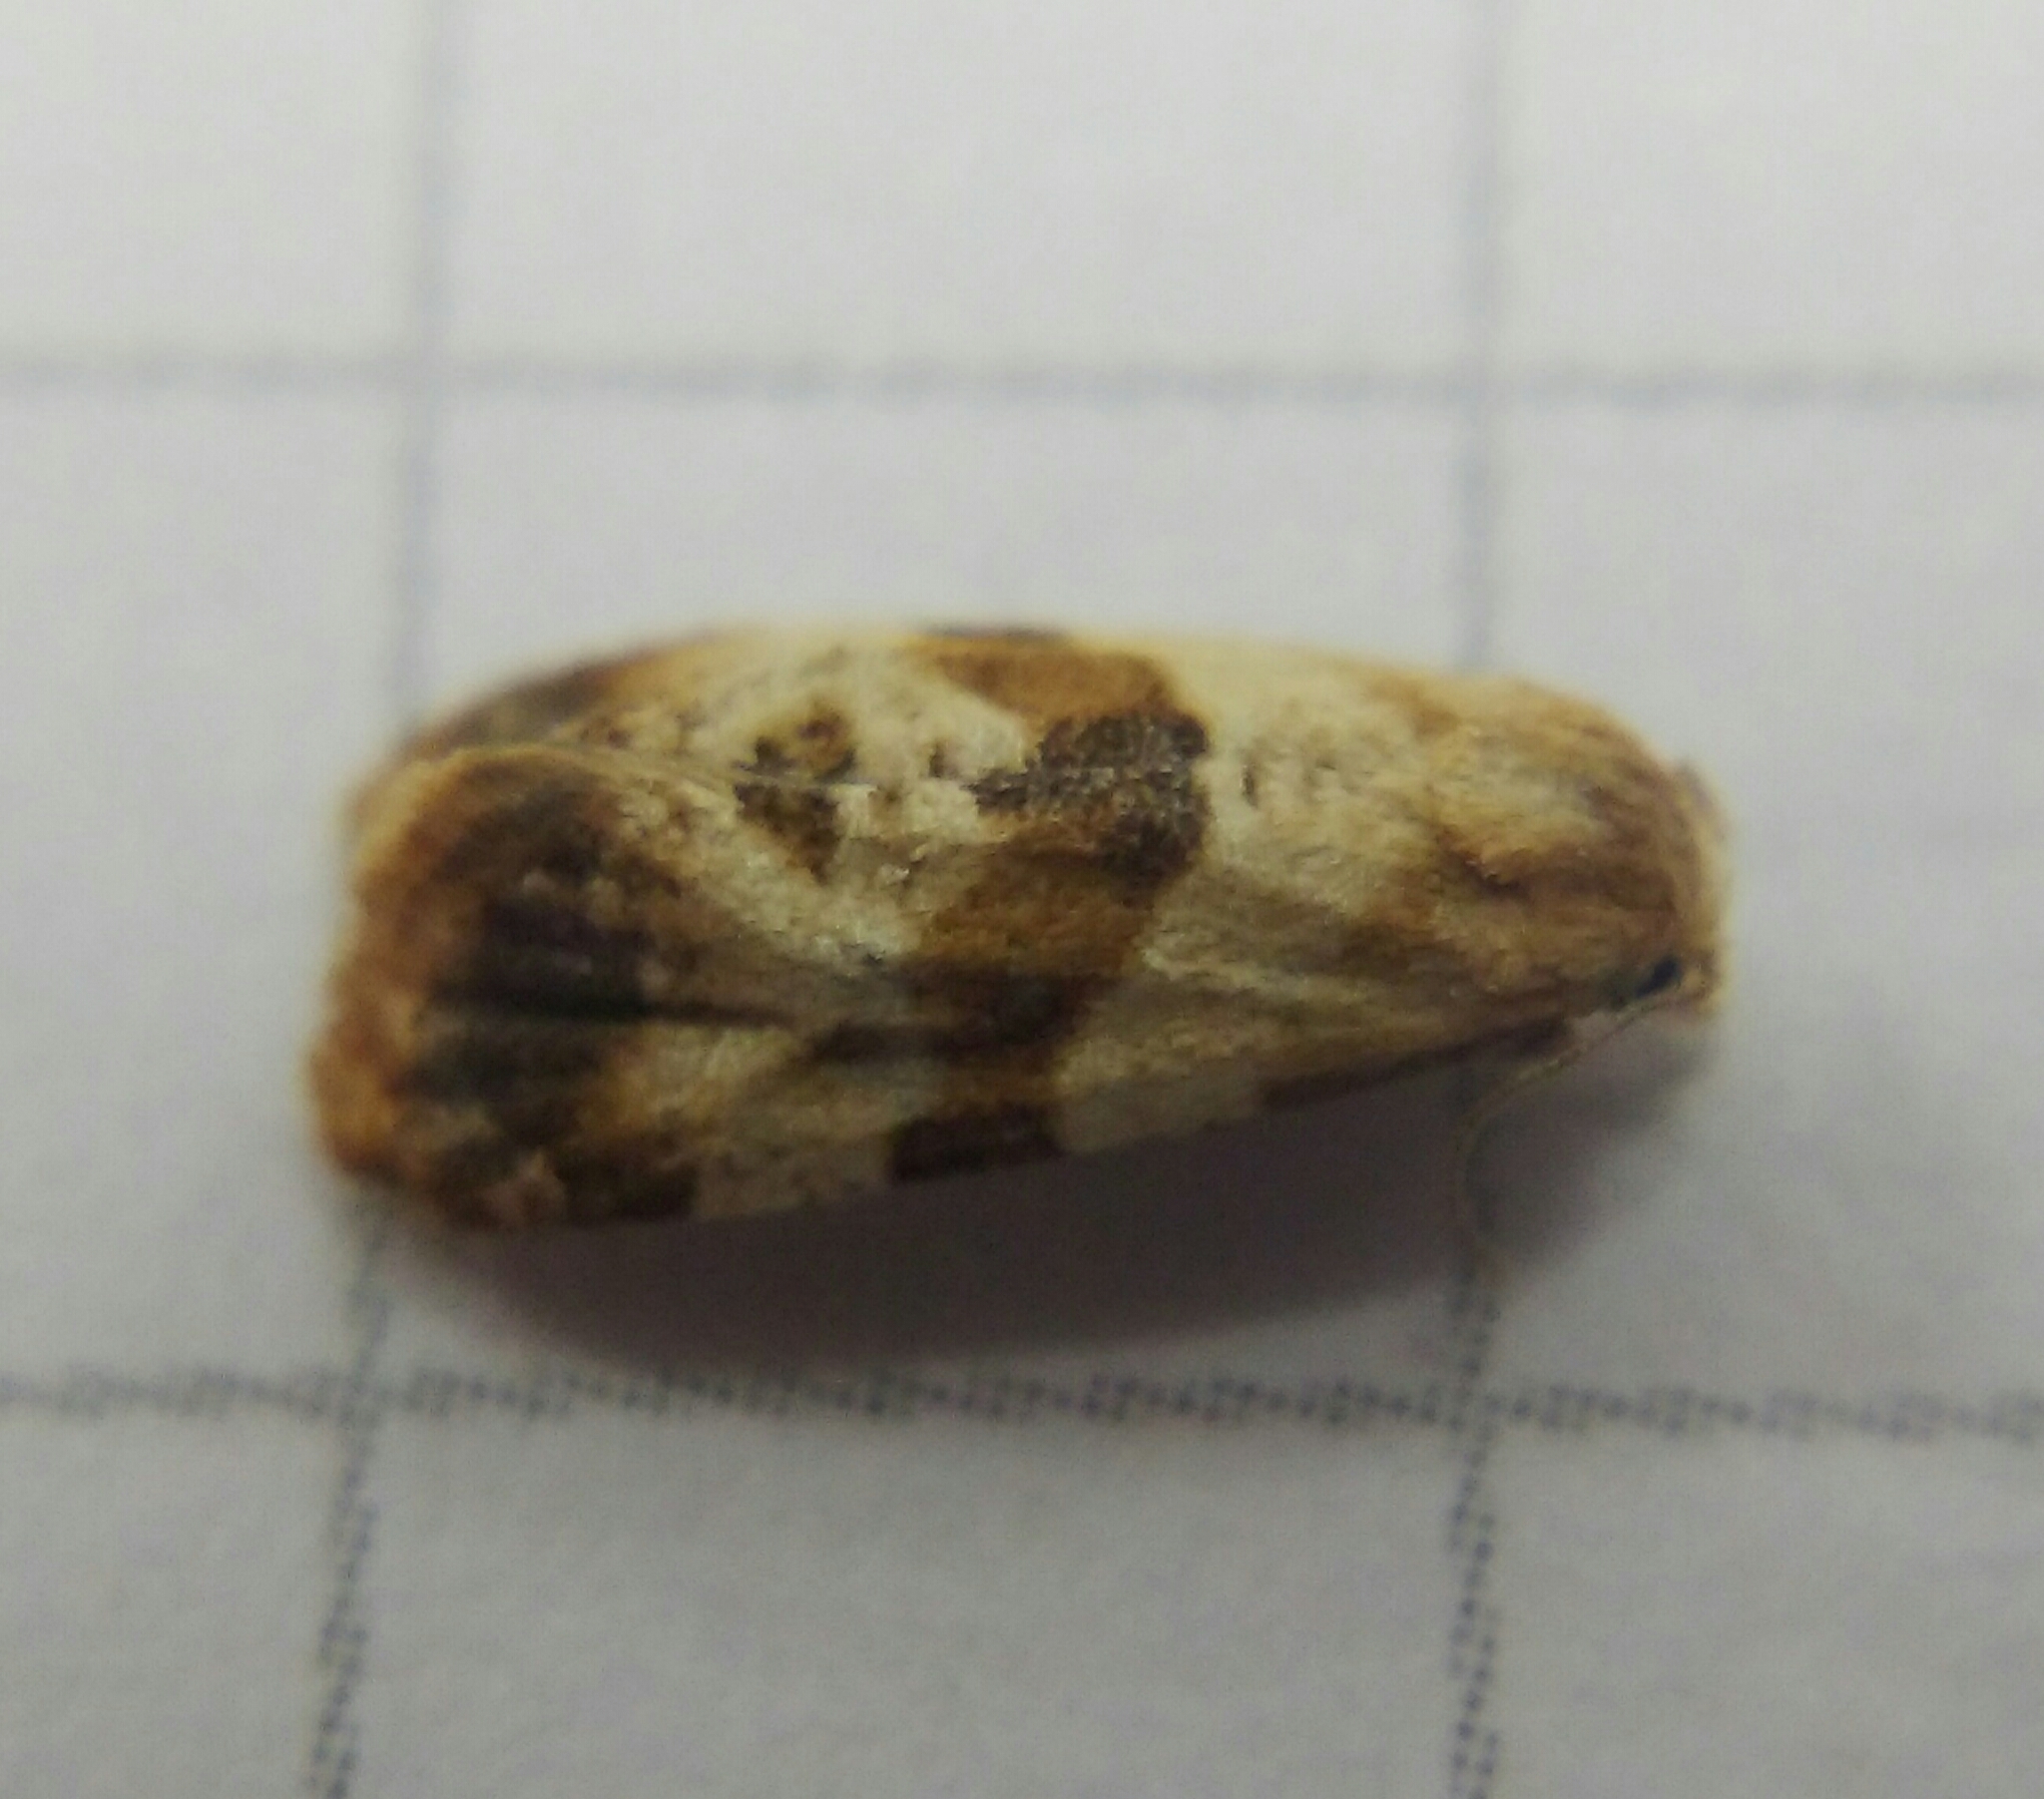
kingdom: Animalia
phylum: Arthropoda
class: Insecta
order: Lepidoptera
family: Tortricidae
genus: Phalonidia
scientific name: Phalonidia contractana
